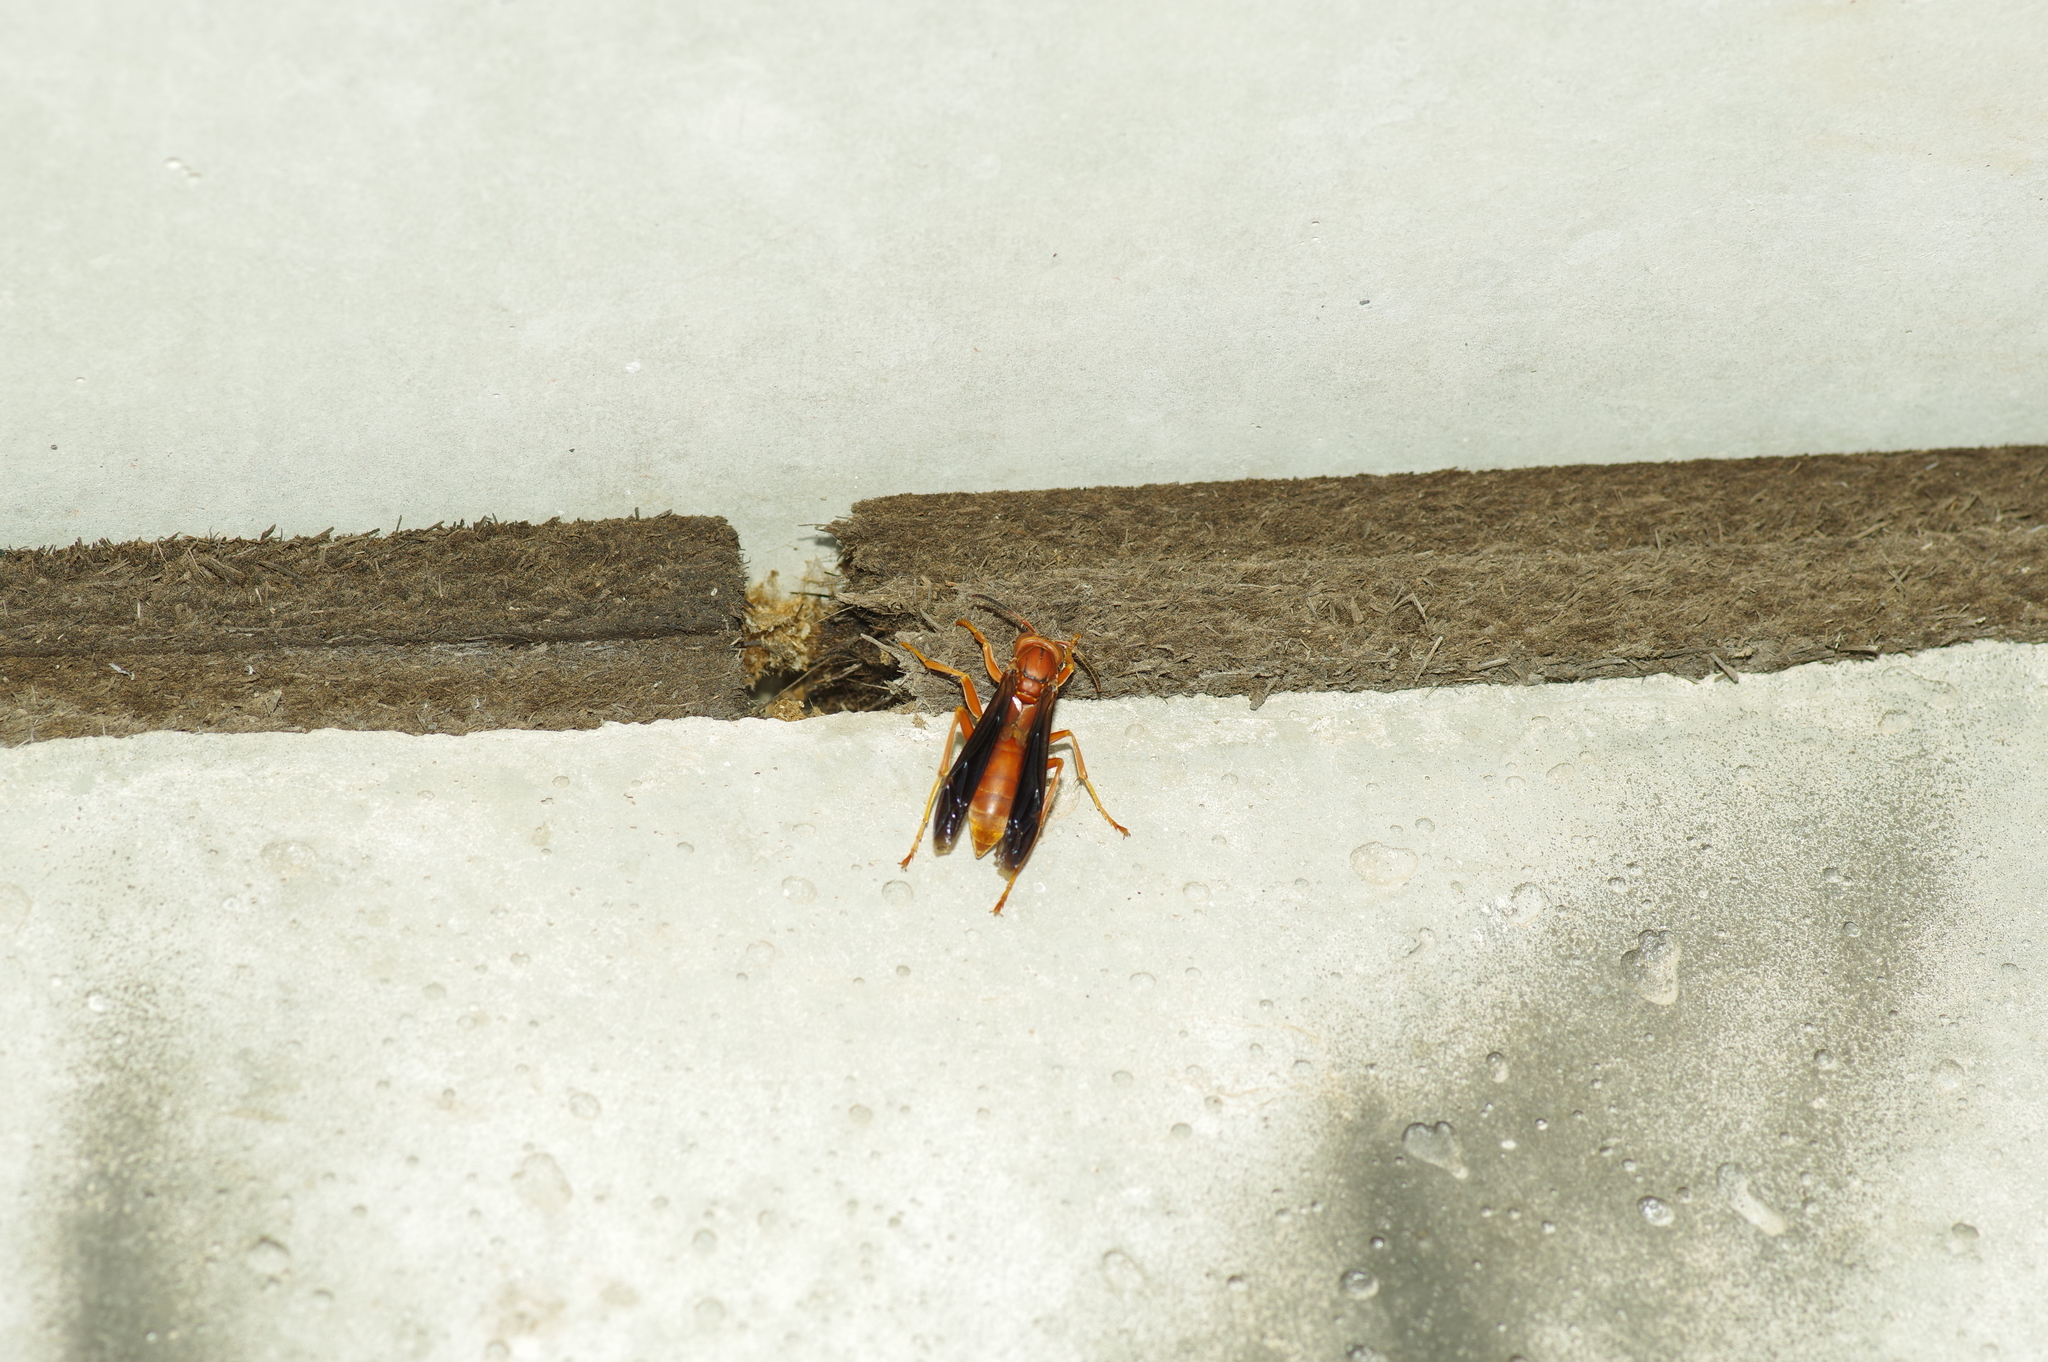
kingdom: Animalia
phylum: Arthropoda
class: Insecta
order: Hymenoptera
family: Vespidae
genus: Fuscopolistes
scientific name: Fuscopolistes
